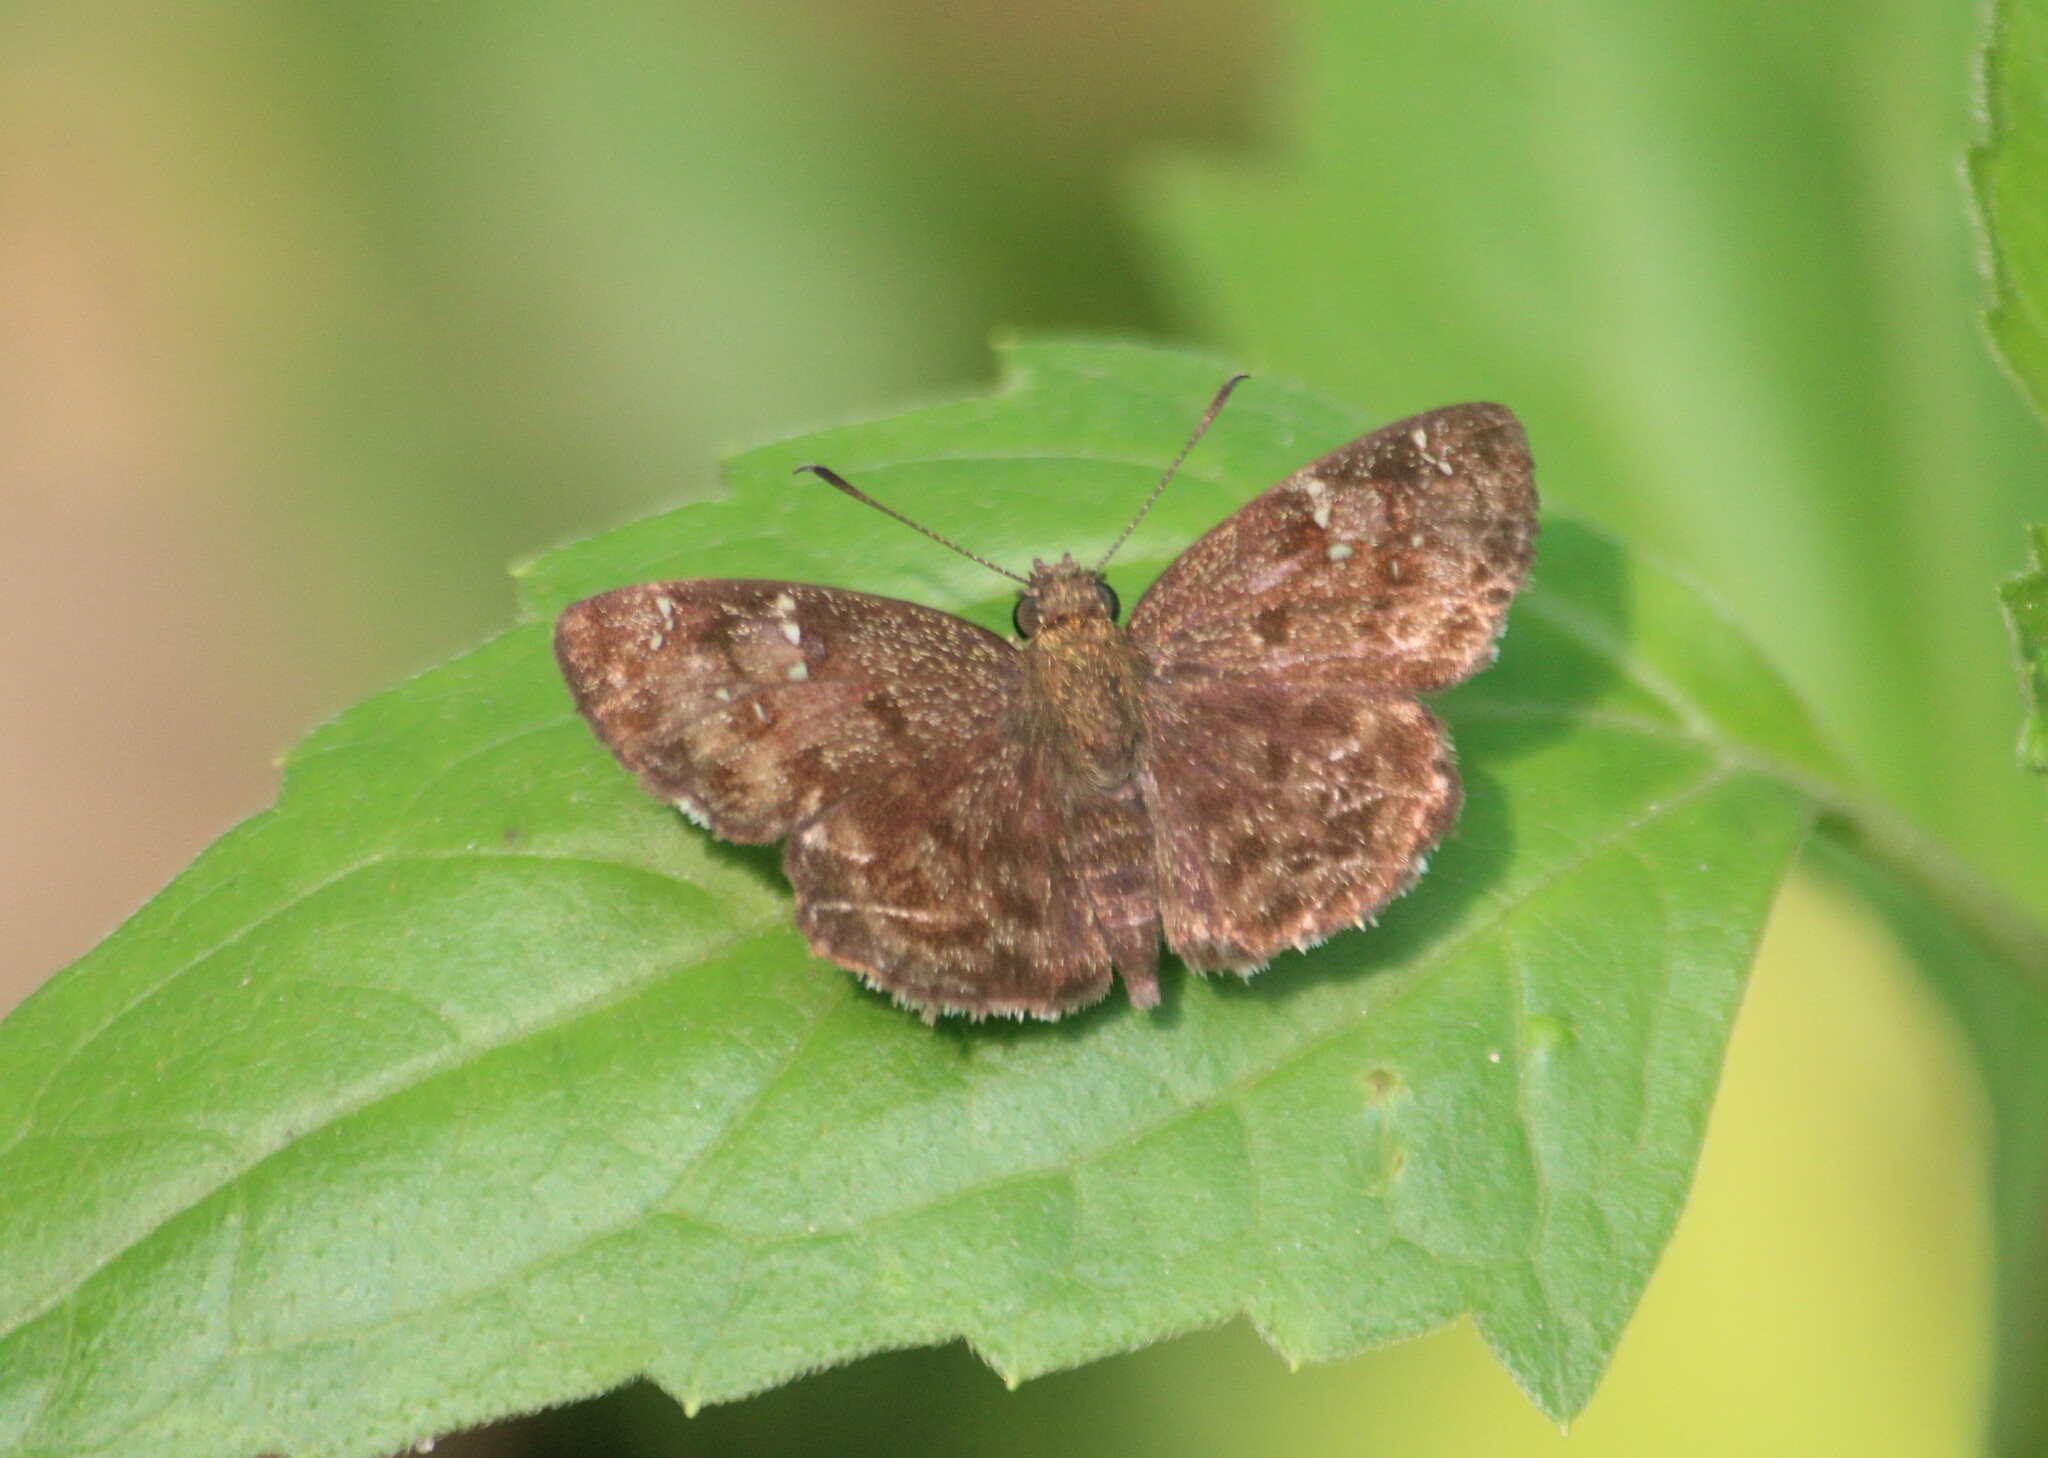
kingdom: Animalia
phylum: Arthropoda
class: Insecta
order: Lepidoptera
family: Hesperiidae
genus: Sarangesa
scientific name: Sarangesa dasahara
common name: Common small flat
